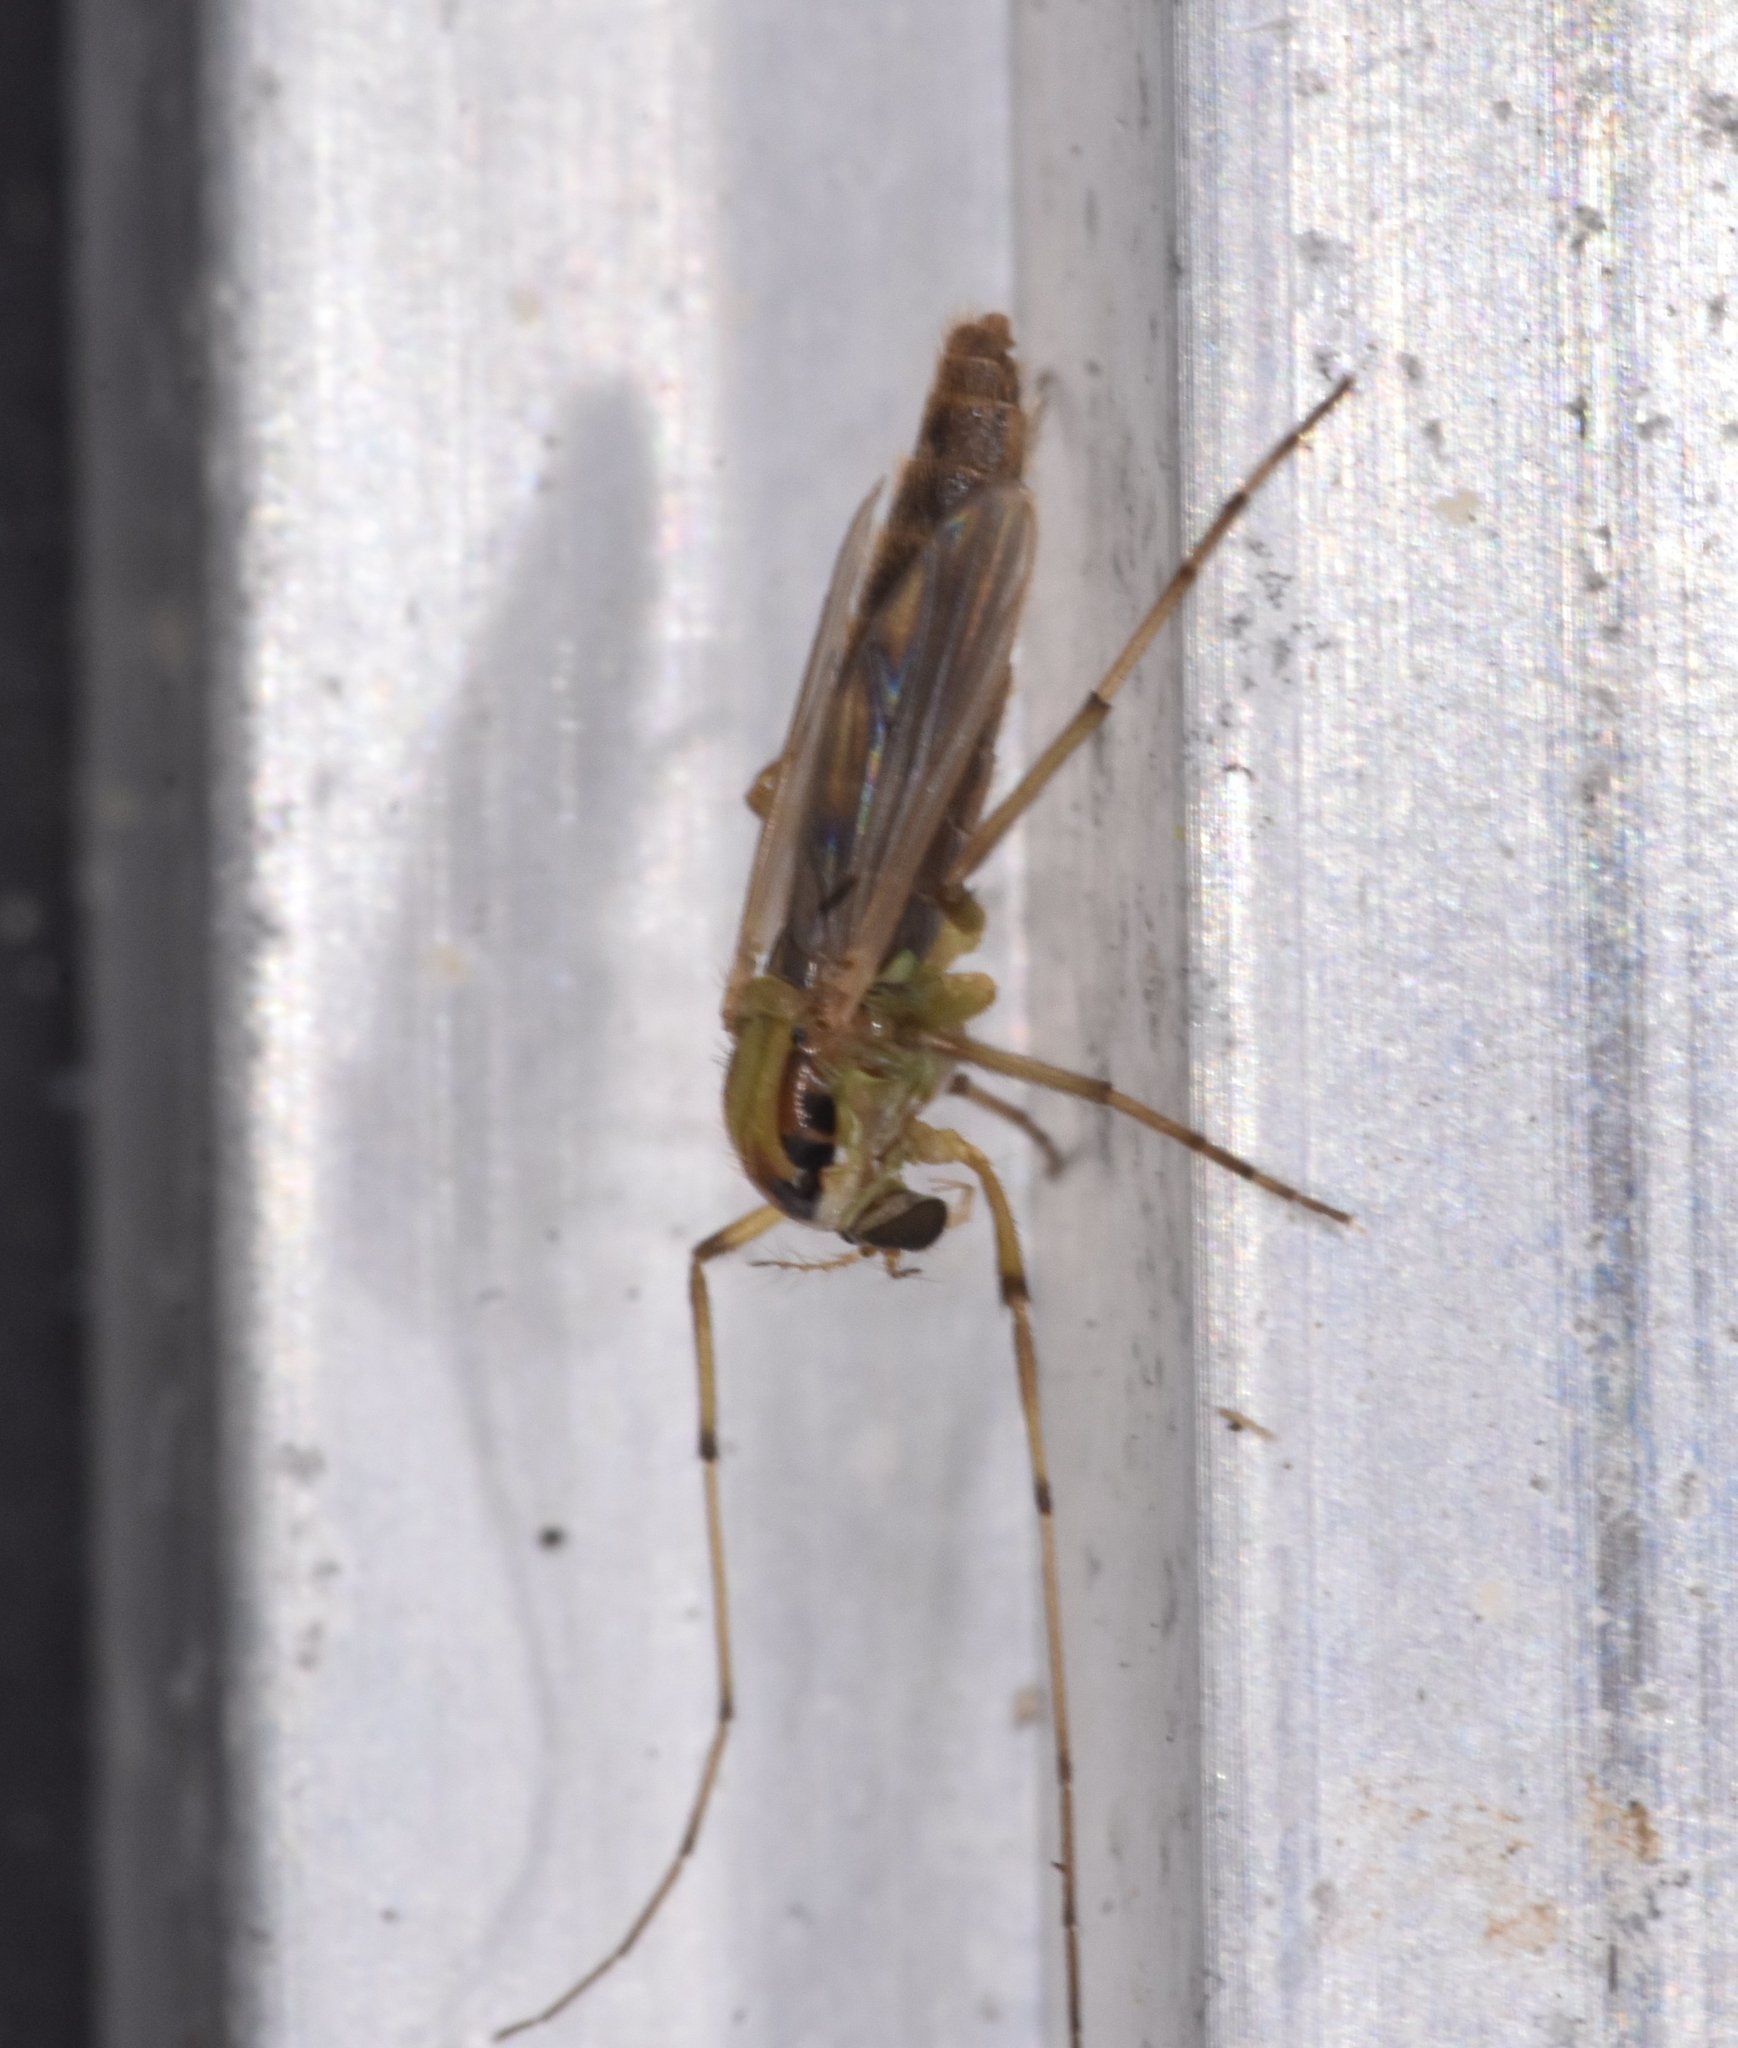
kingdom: Animalia
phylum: Arthropoda
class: Insecta
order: Diptera
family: Chironomidae
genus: Goeldichironomus
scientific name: Goeldichironomus carus
